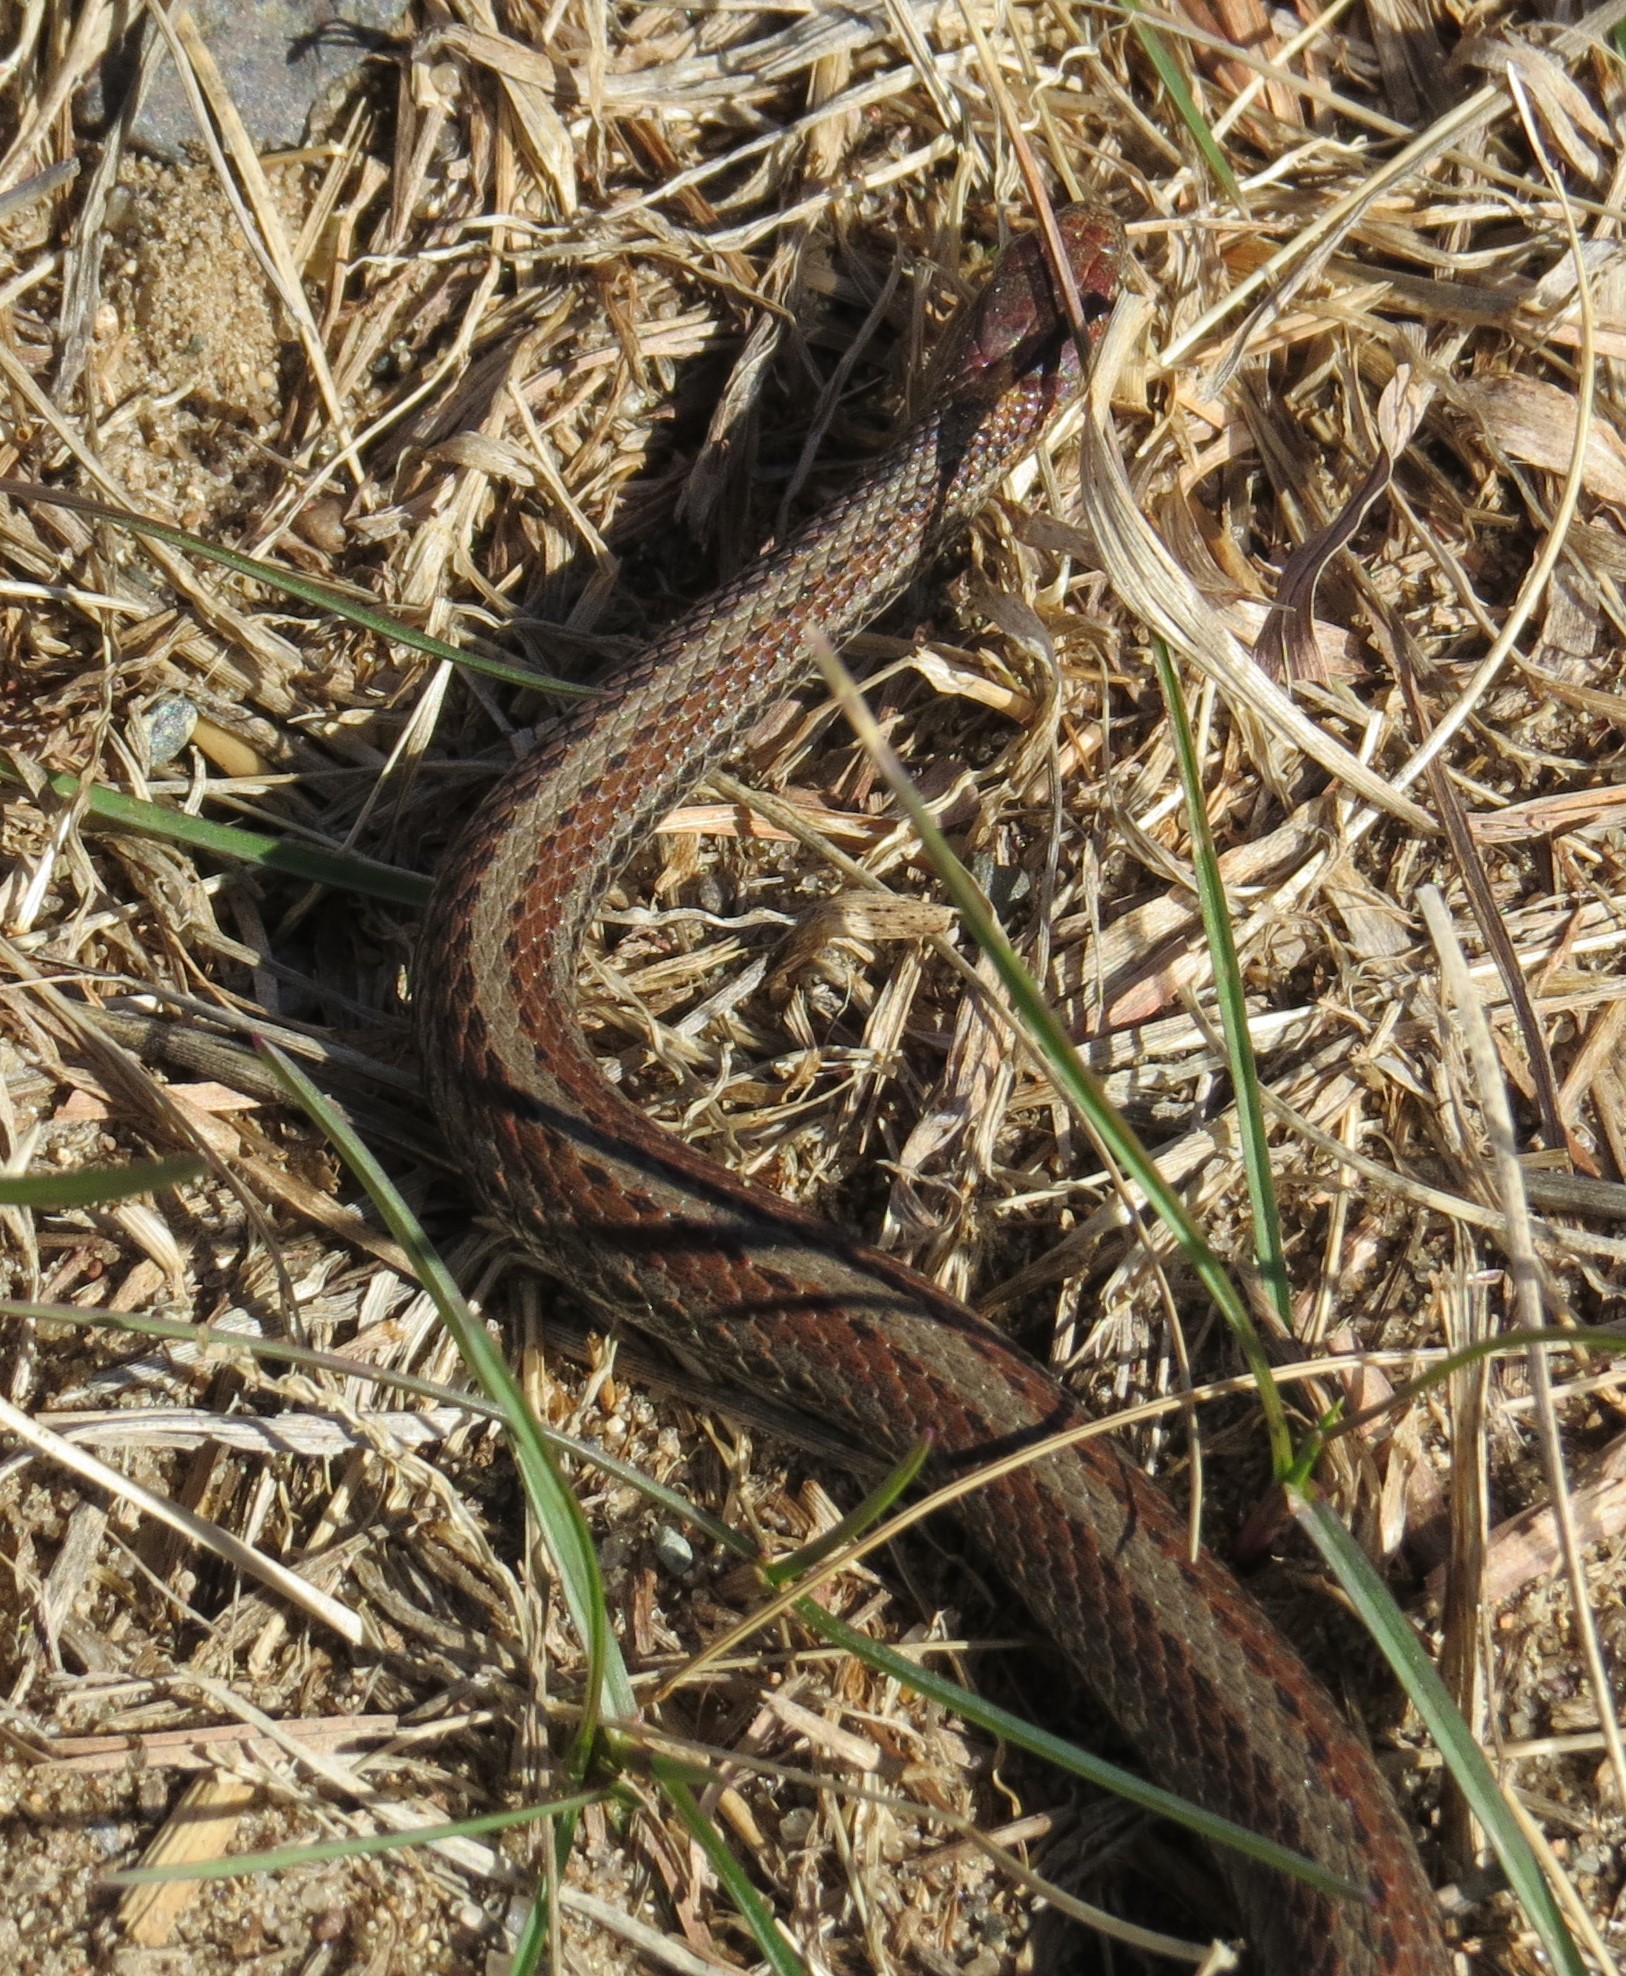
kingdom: Animalia
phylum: Chordata
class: Squamata
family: Colubridae
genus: Storeria
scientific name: Storeria occipitomaculata
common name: Redbelly snake
